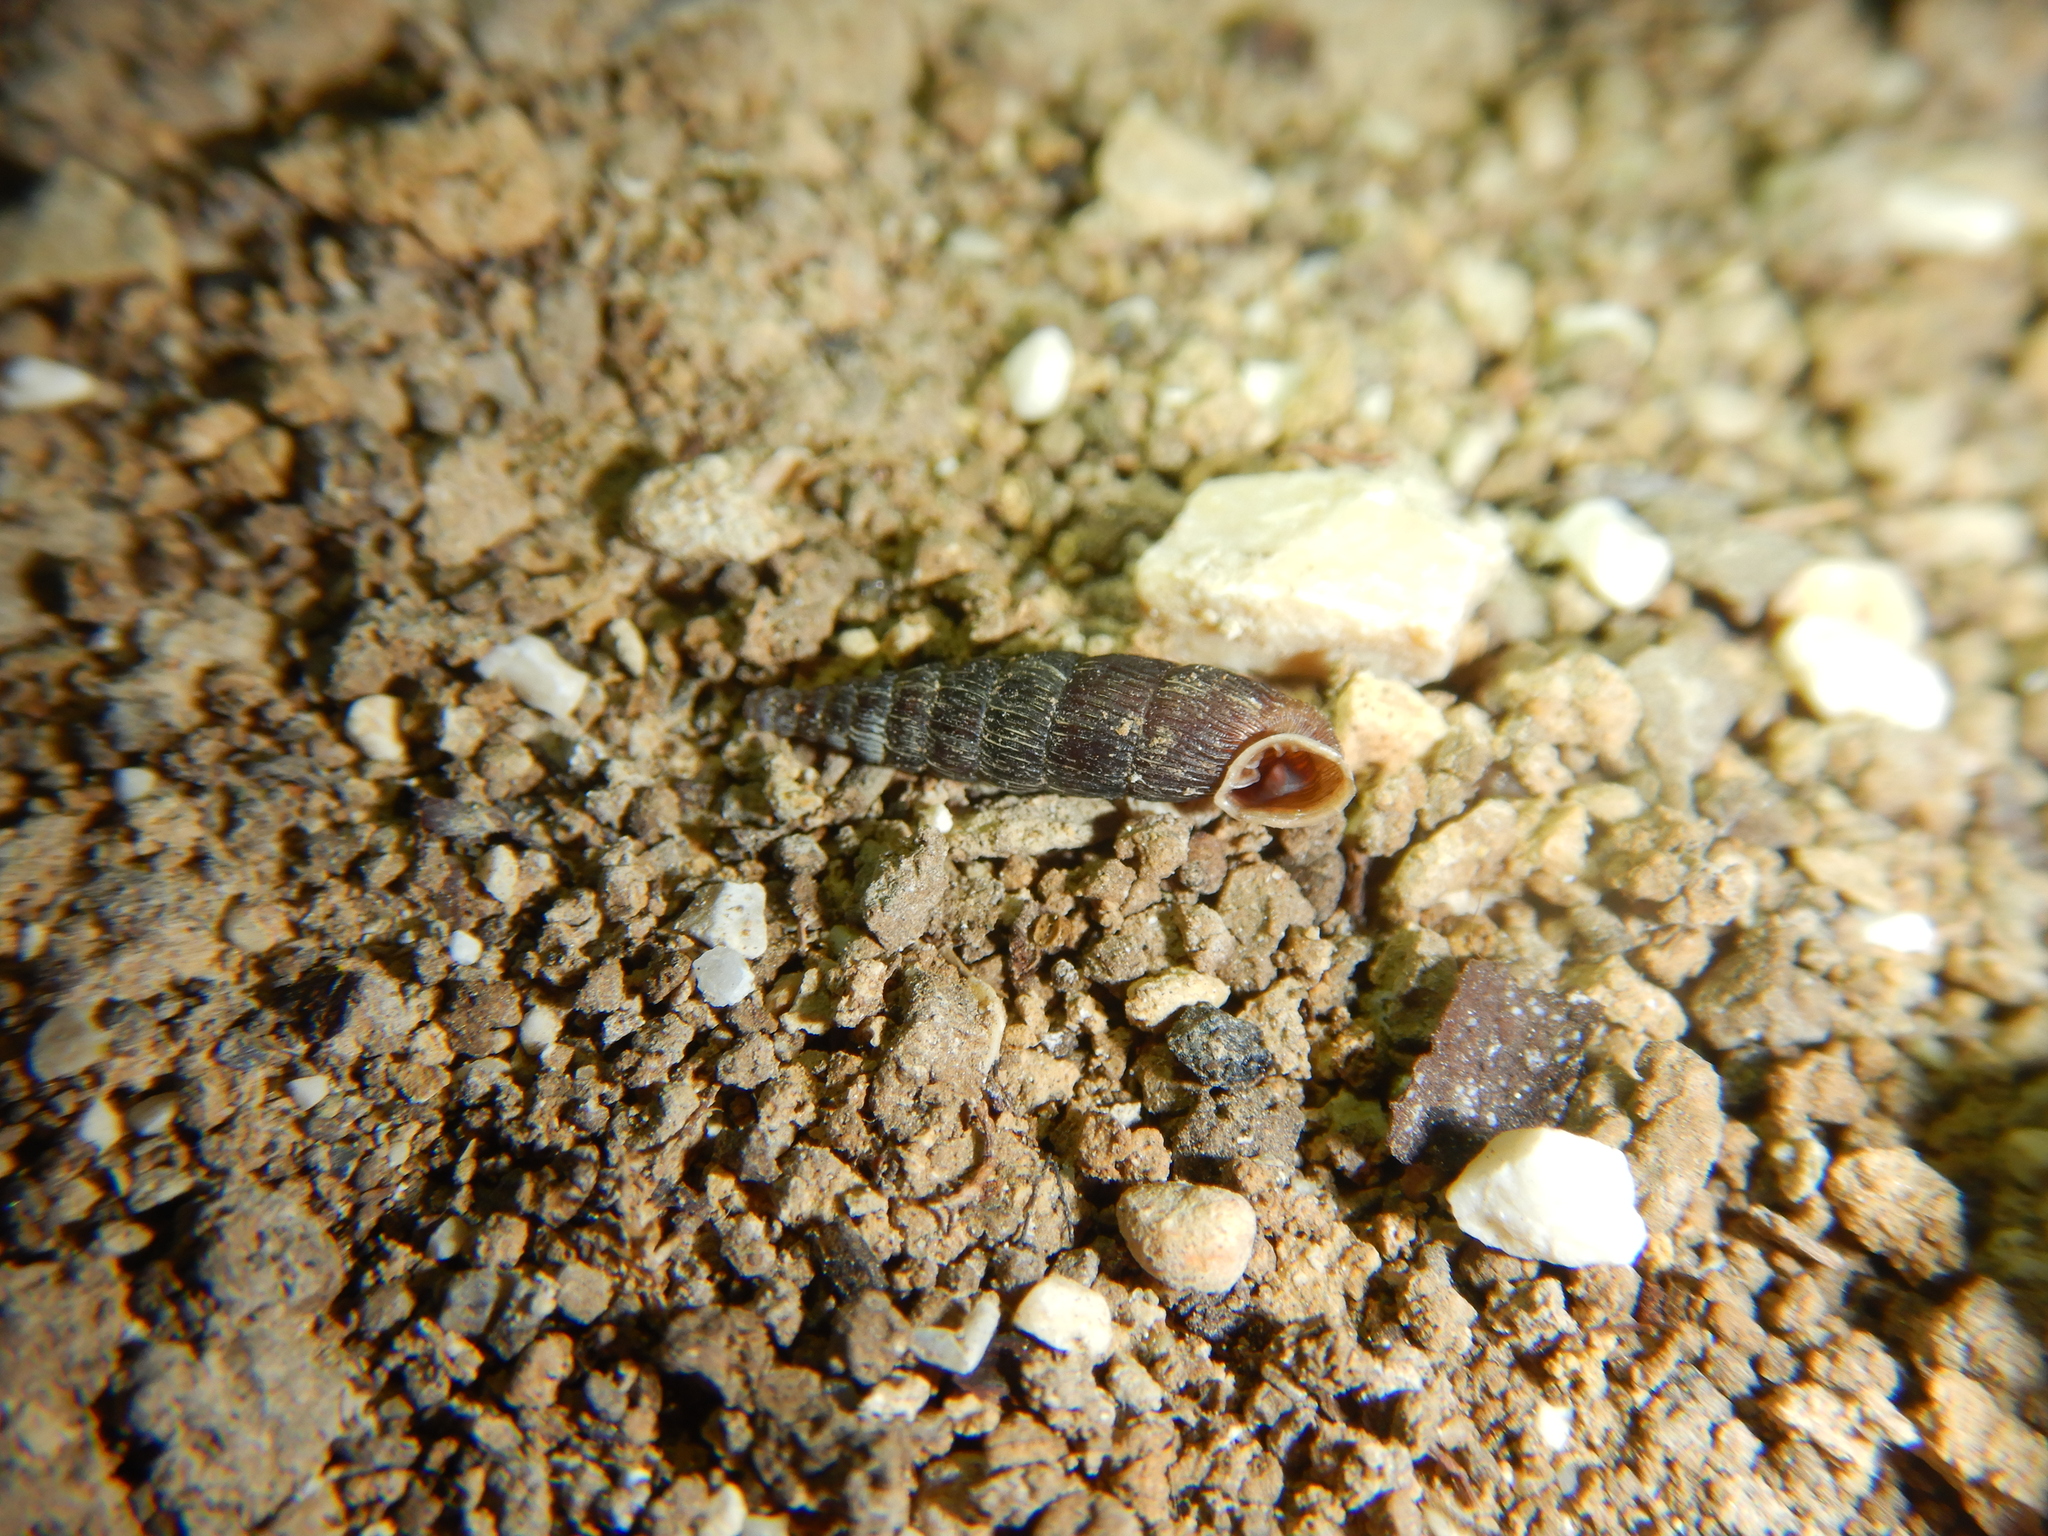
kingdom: Animalia
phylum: Mollusca
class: Gastropoda
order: Stylommatophora
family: Clausiliidae
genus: Clausilia
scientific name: Clausilia cruciata
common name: Sharp-ribbed door snail
